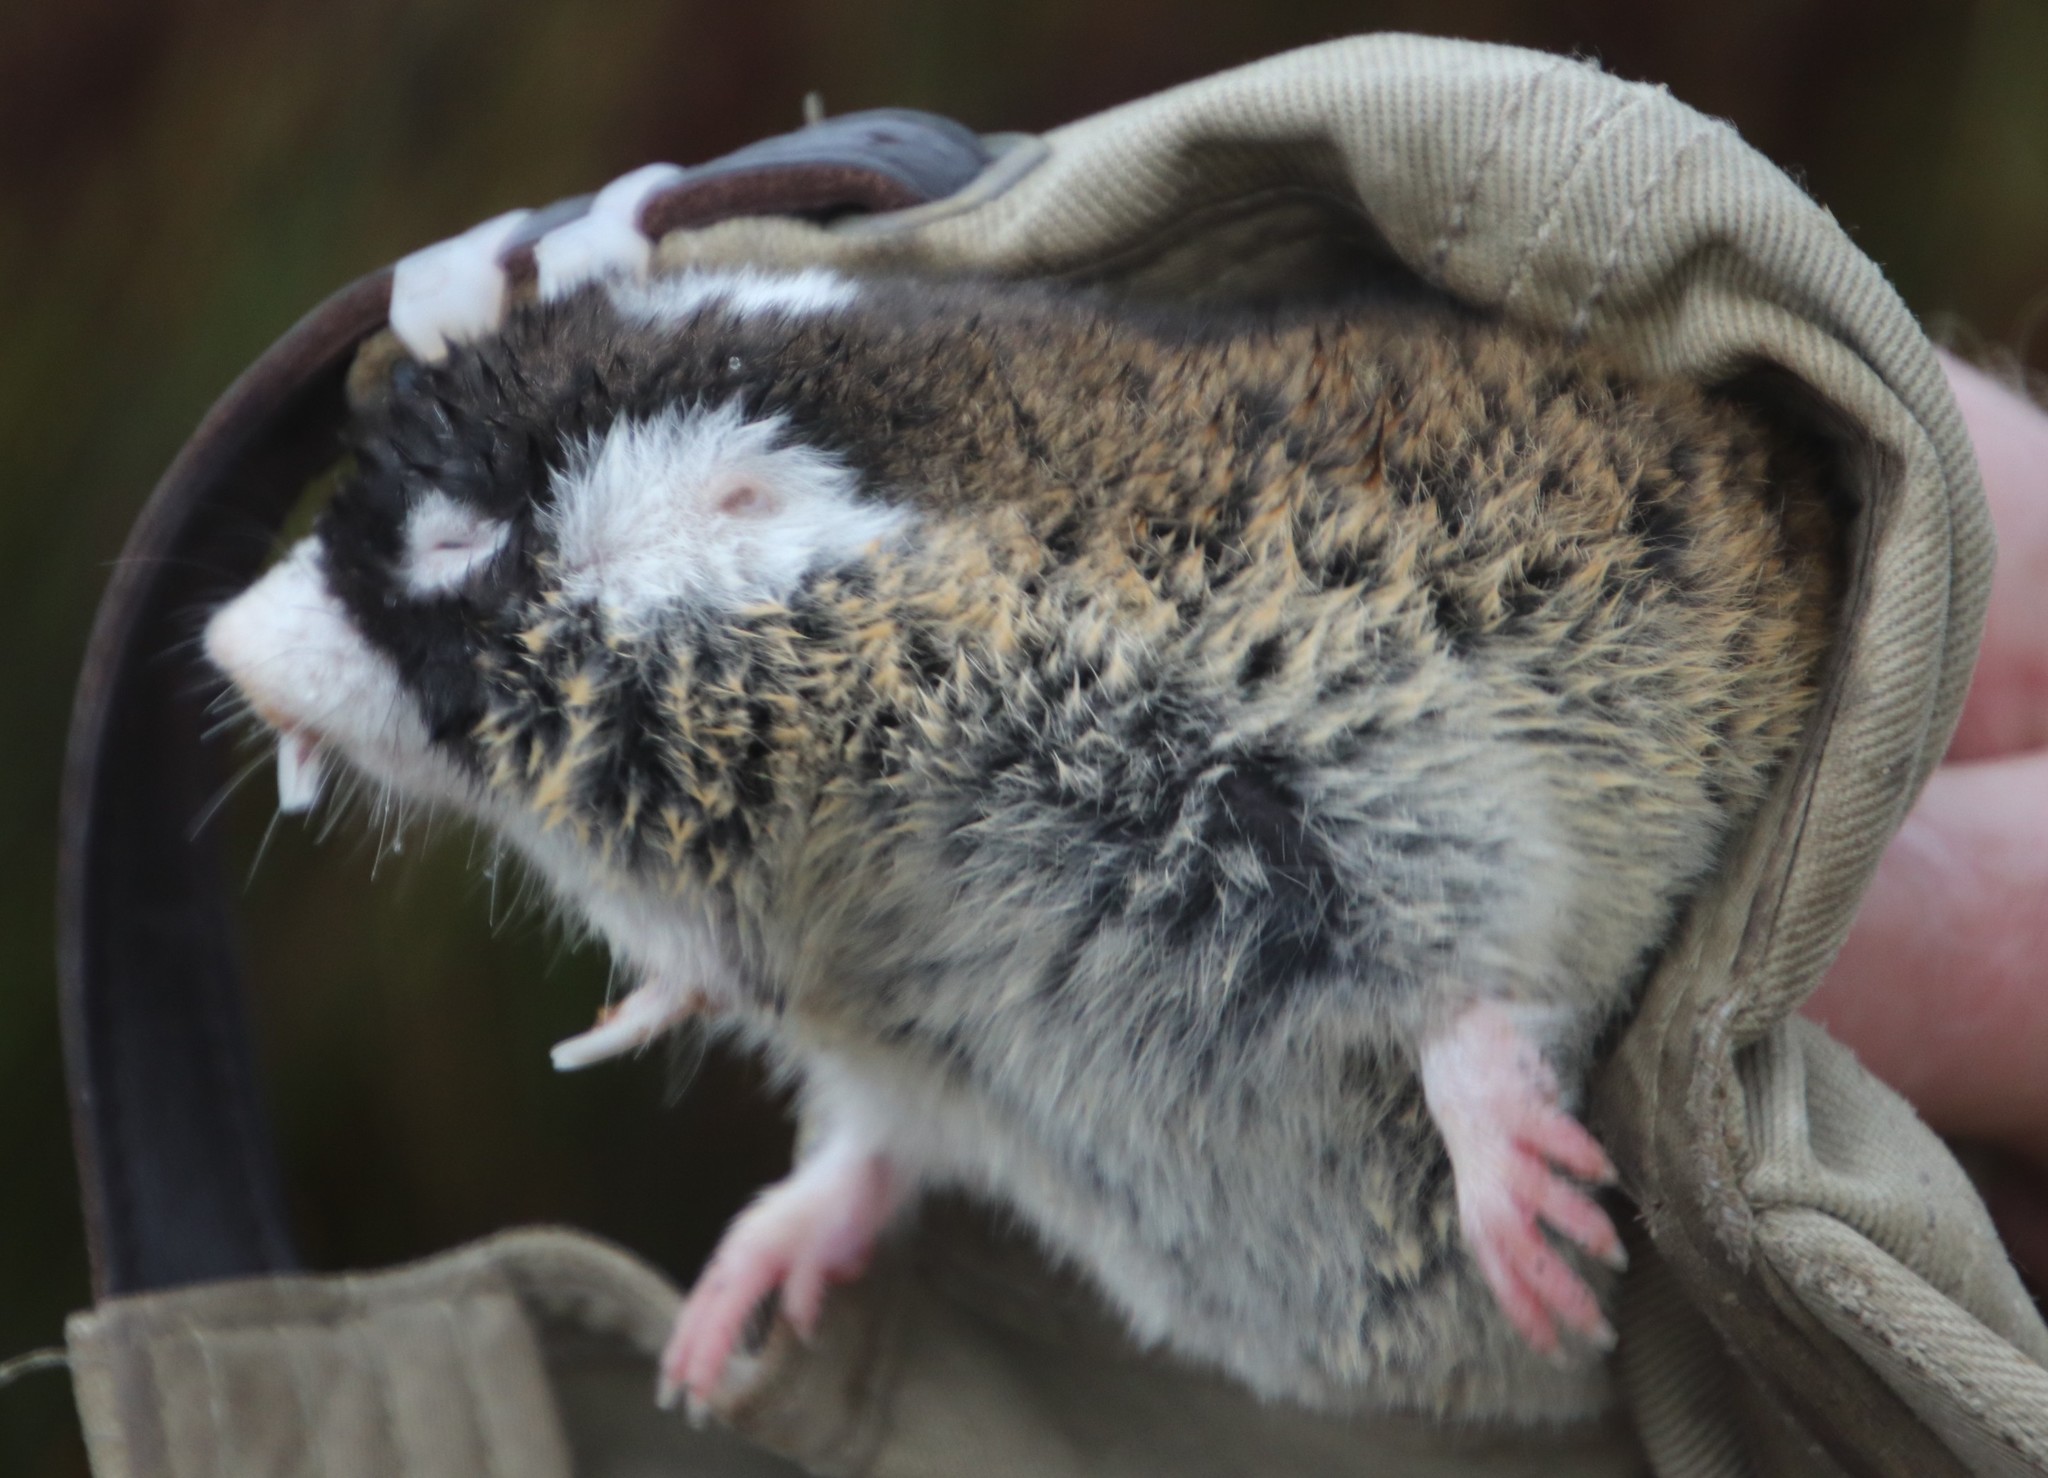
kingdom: Animalia
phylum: Chordata
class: Mammalia
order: Rodentia
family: Bathyergidae
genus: Georychus
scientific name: Georychus capensis
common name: Cape mole-rat
